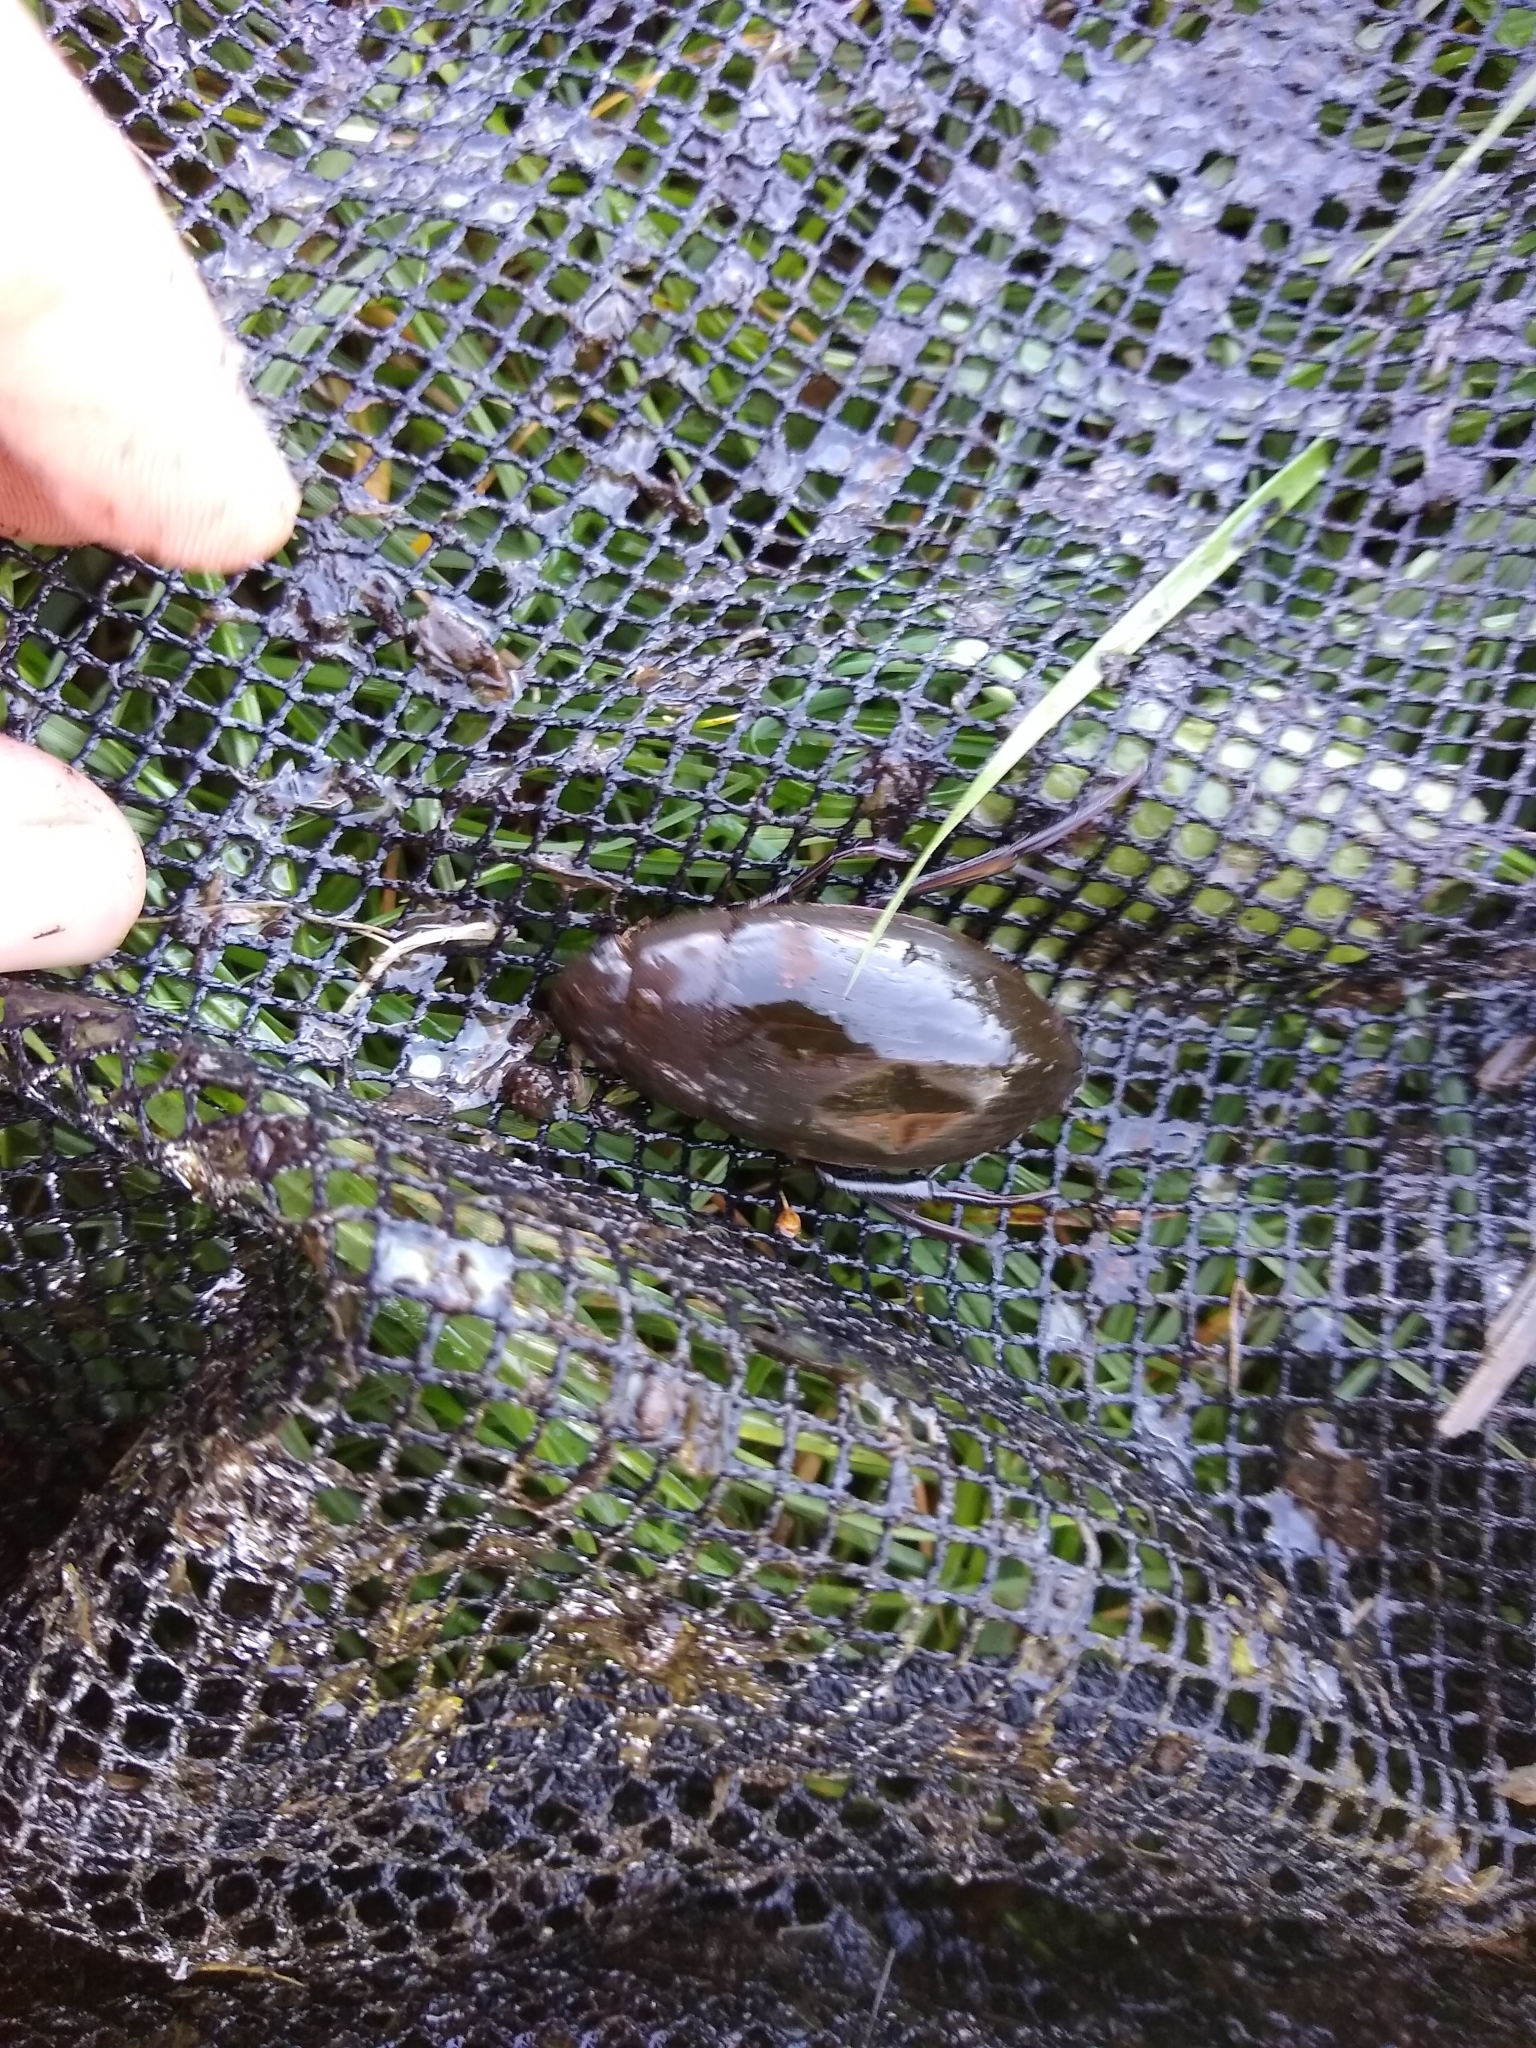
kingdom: Animalia
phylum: Arthropoda
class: Insecta
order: Coleoptera
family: Hydrophilidae
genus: Hydrophilus
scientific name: Hydrophilus piceus
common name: Great silver water beetle
